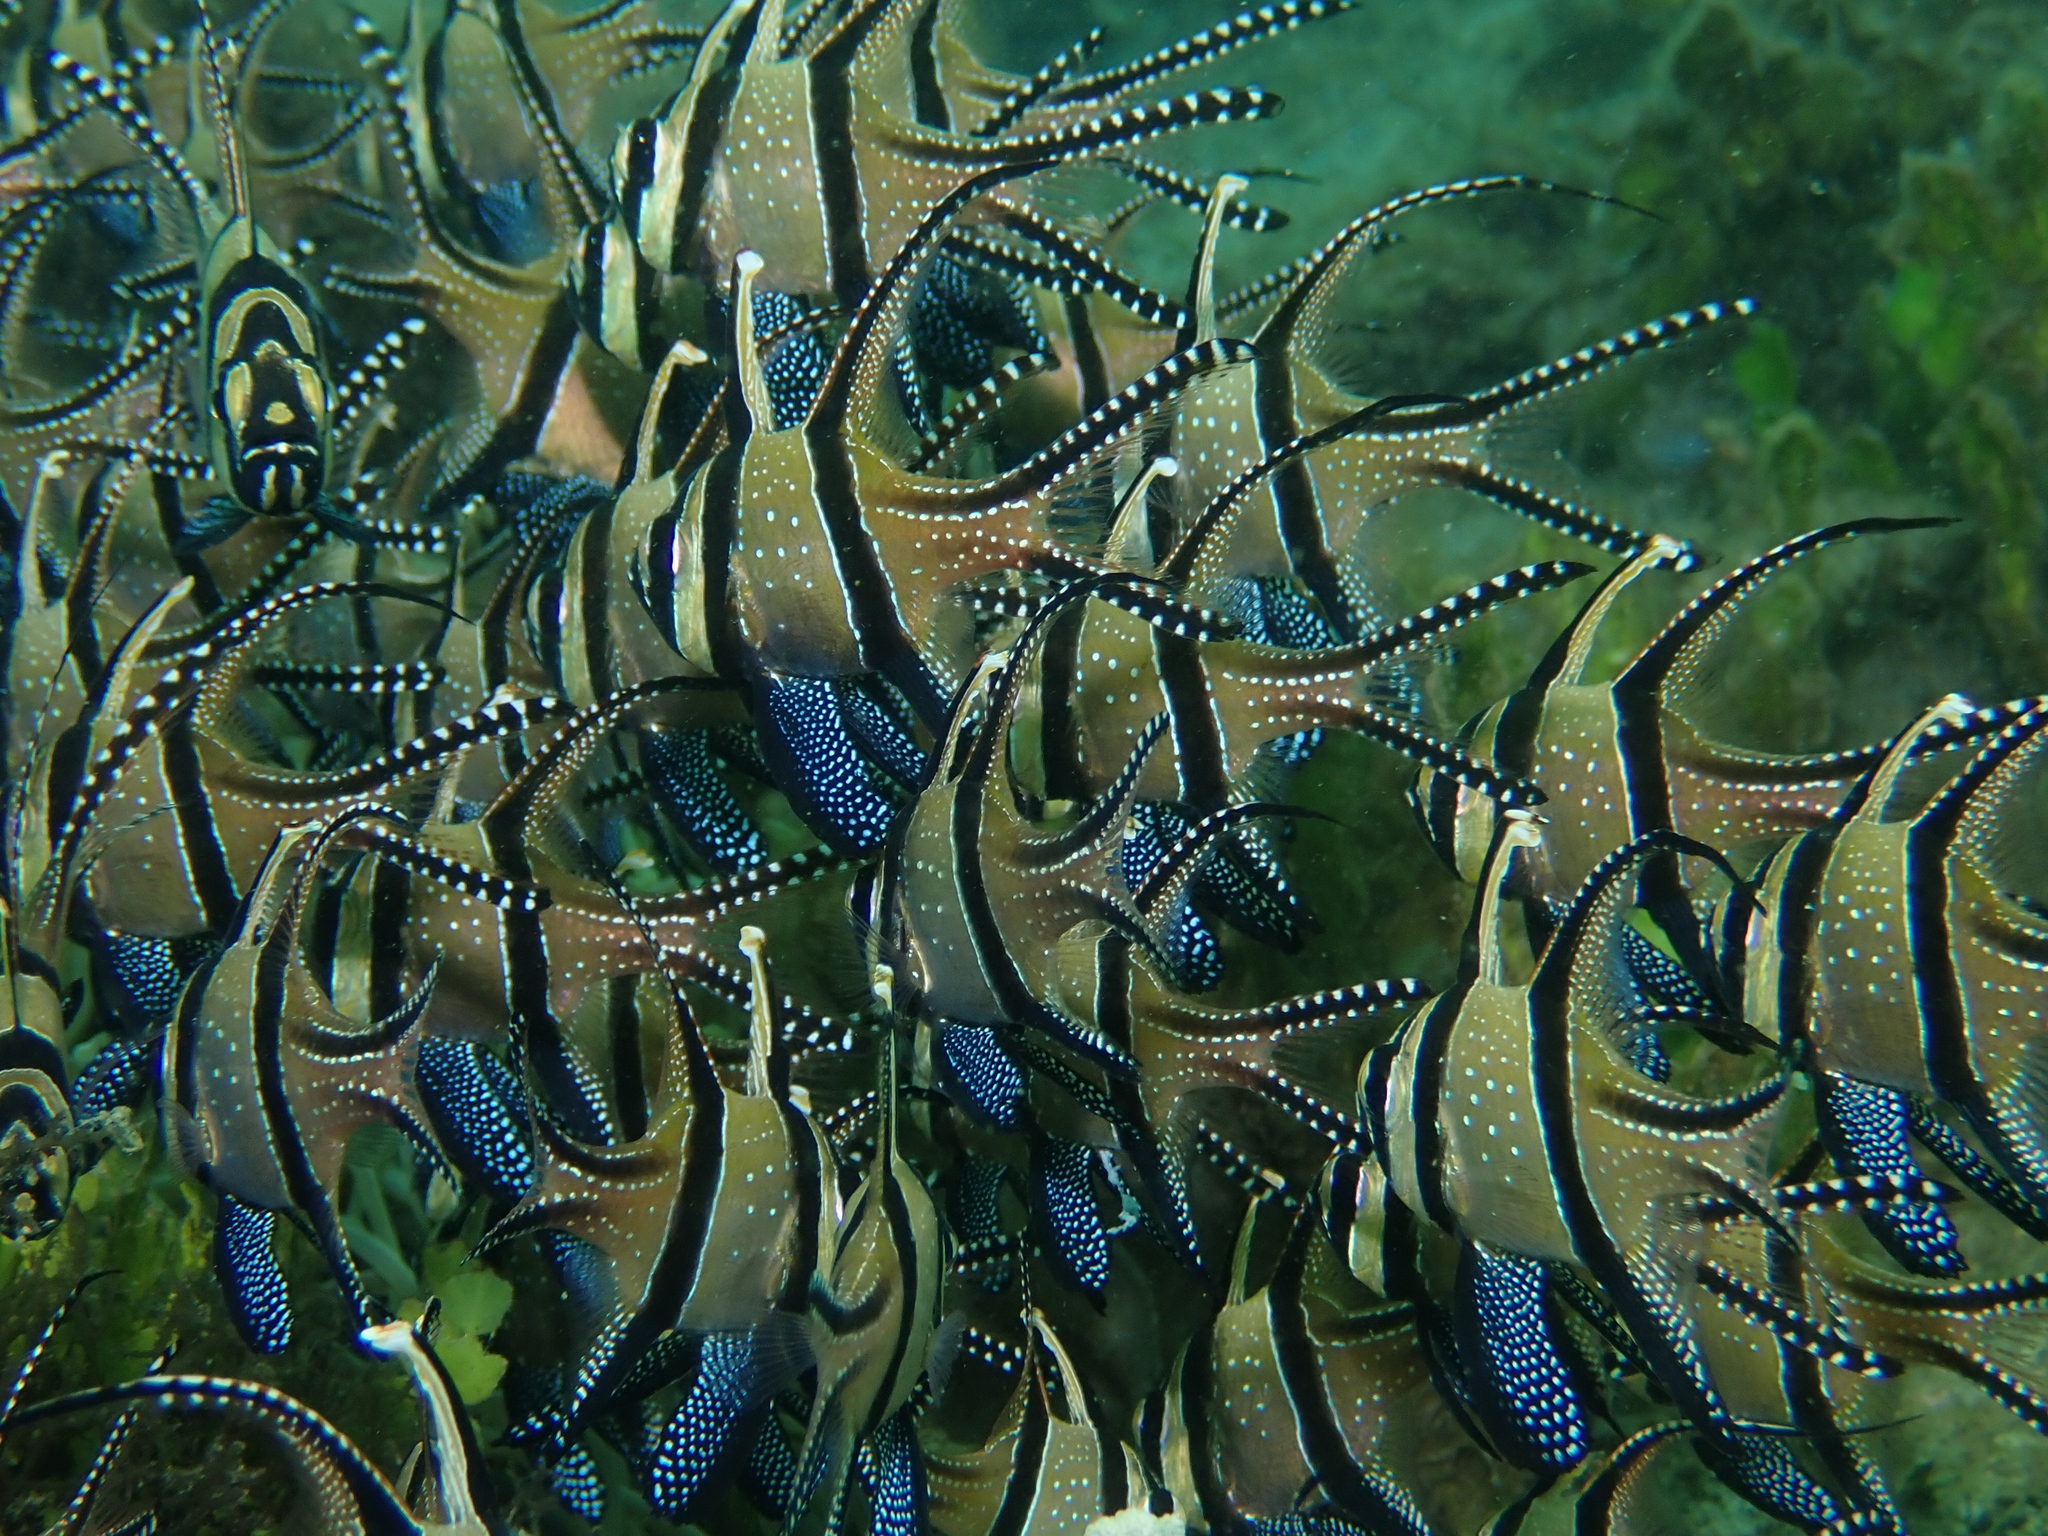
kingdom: Animalia
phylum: Chordata
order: Perciformes
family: Apogonidae
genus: Pterapogon
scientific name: Pterapogon kauderni
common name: Banggai cardinalfish
